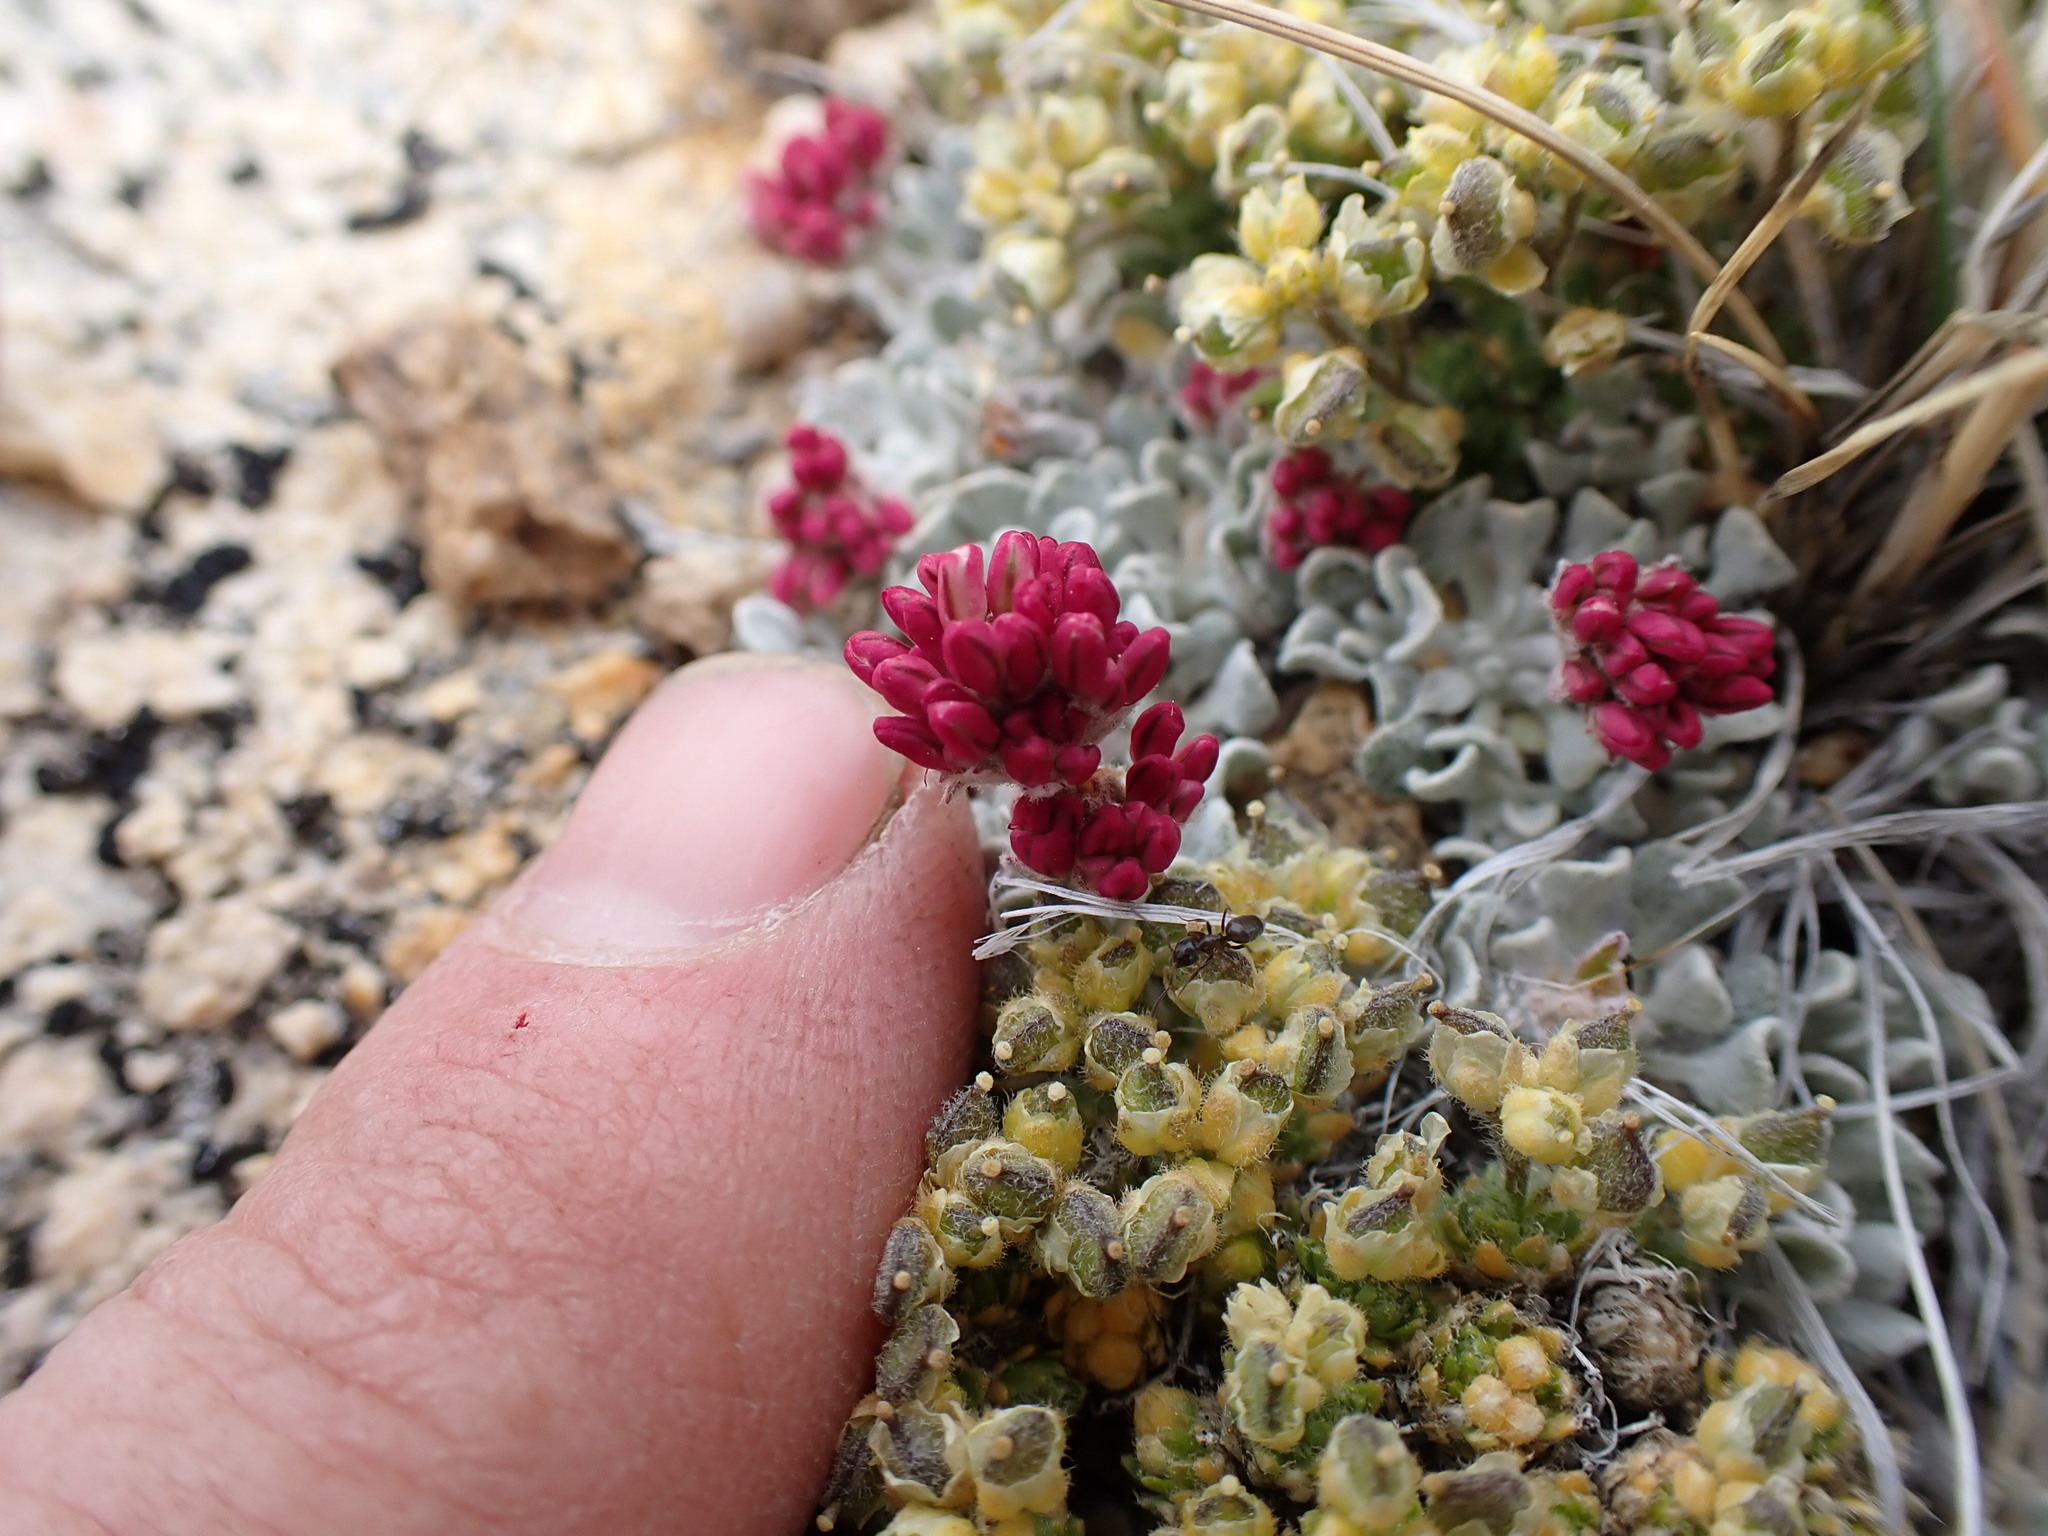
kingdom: Plantae
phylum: Tracheophyta
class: Magnoliopsida
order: Caryophyllales
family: Polygonaceae
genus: Eriogonum
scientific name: Eriogonum ovalifolium
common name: Cushion buckwheat
